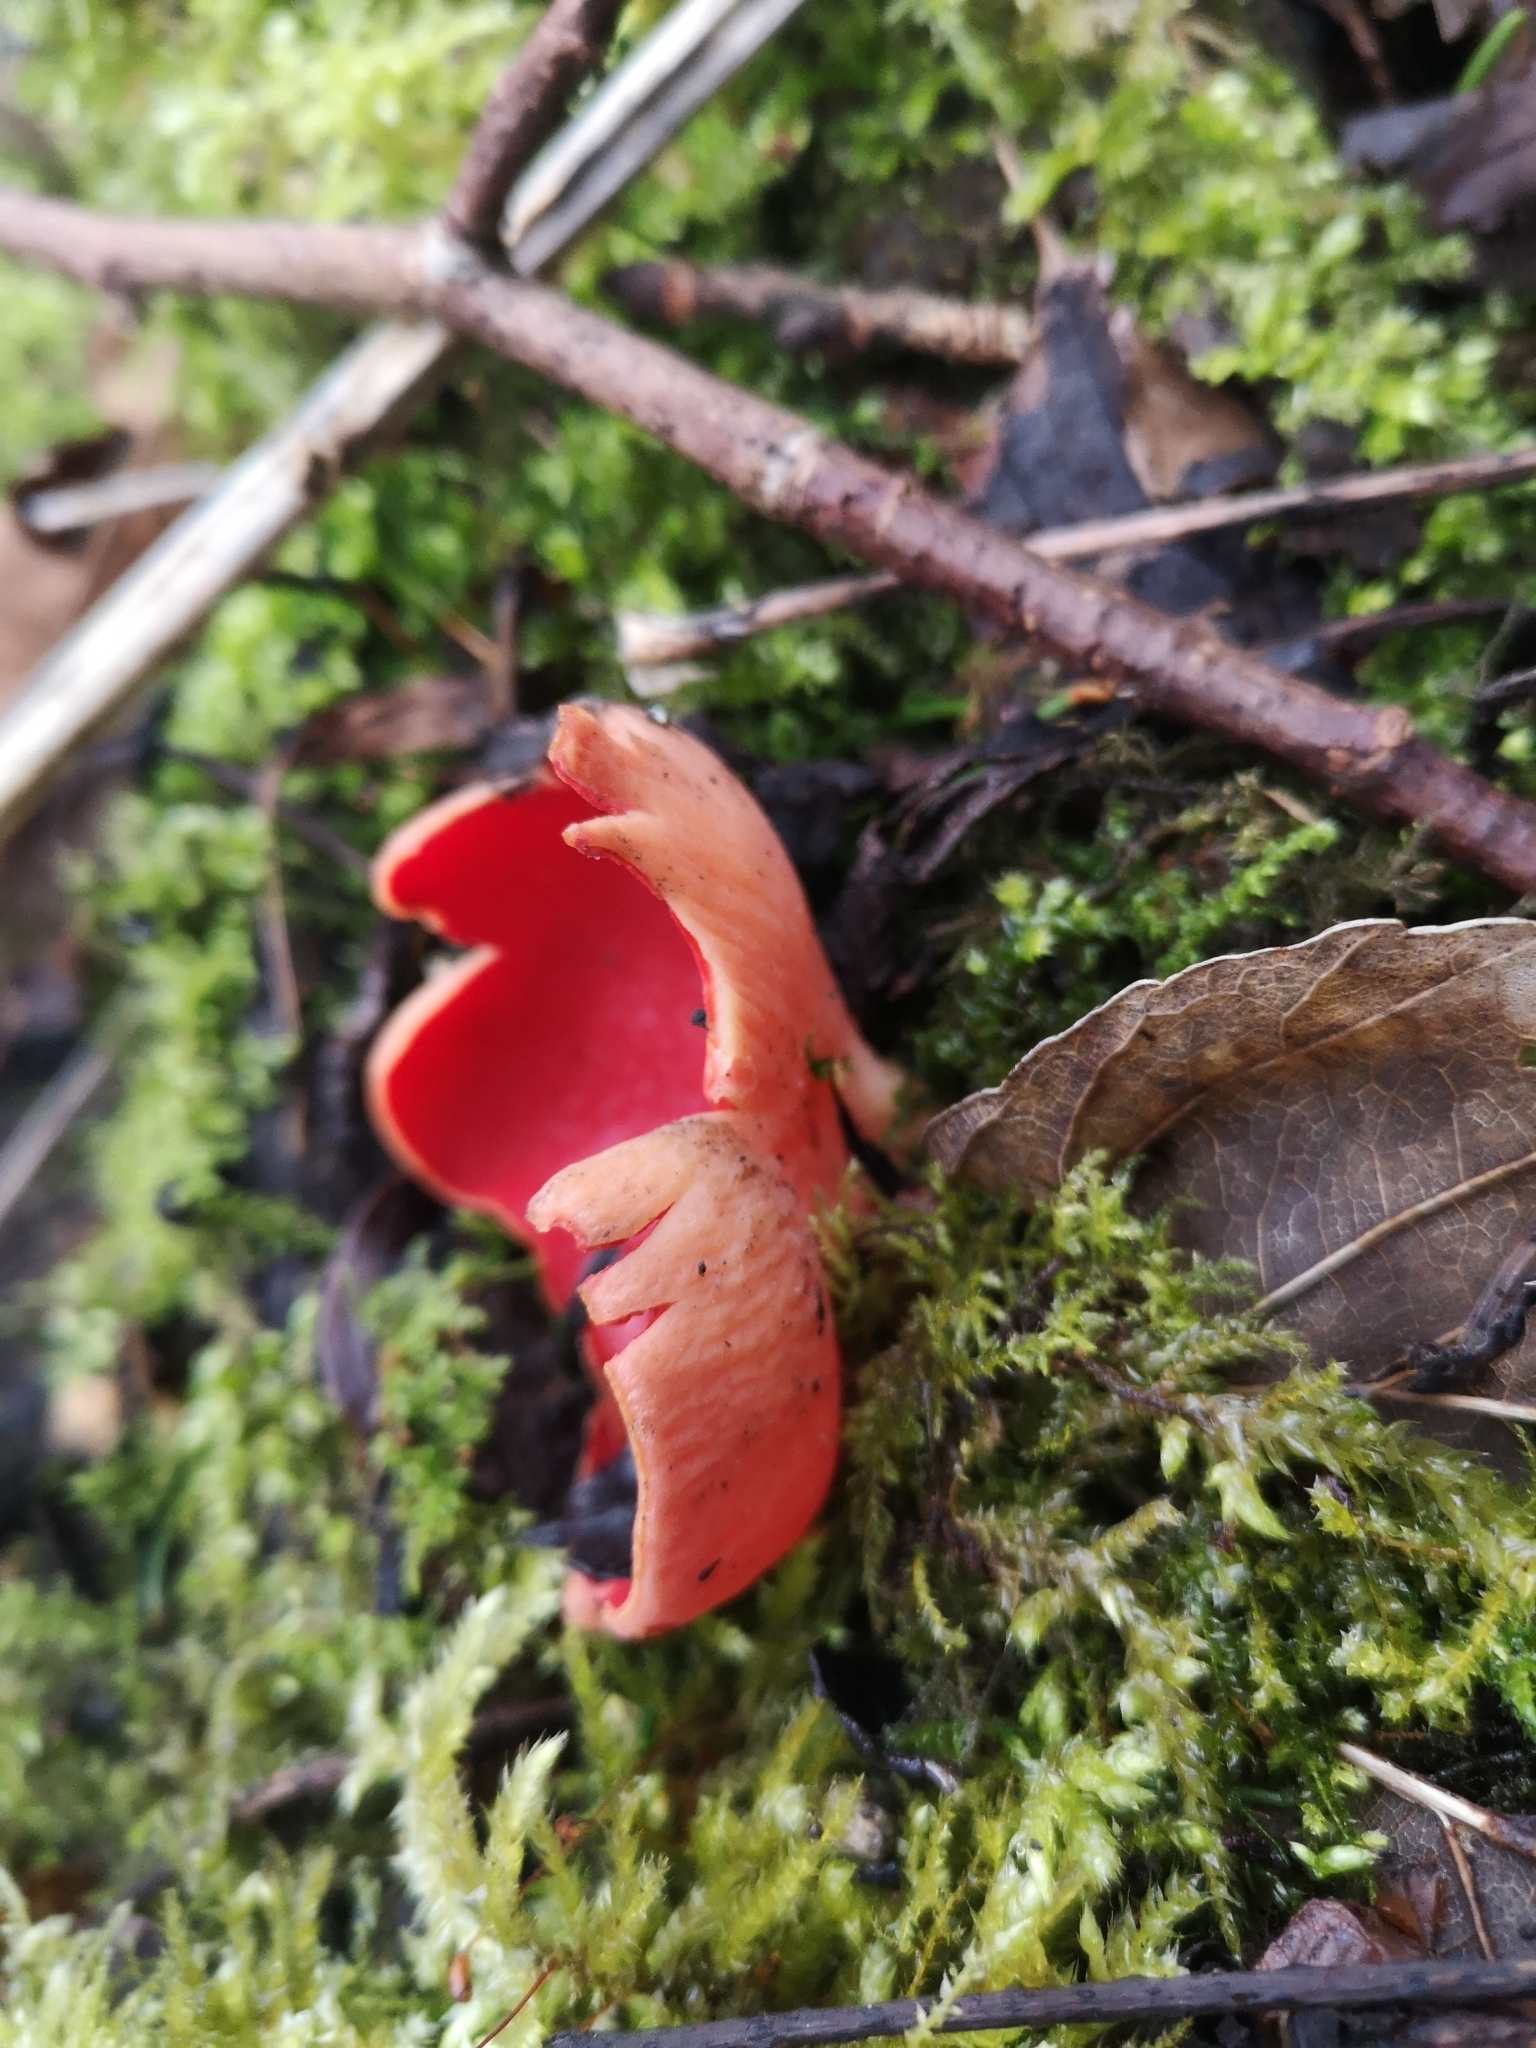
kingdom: Fungi
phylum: Ascomycota
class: Pezizomycetes
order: Pezizales
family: Sarcoscyphaceae
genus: Sarcoscypha
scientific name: Sarcoscypha
